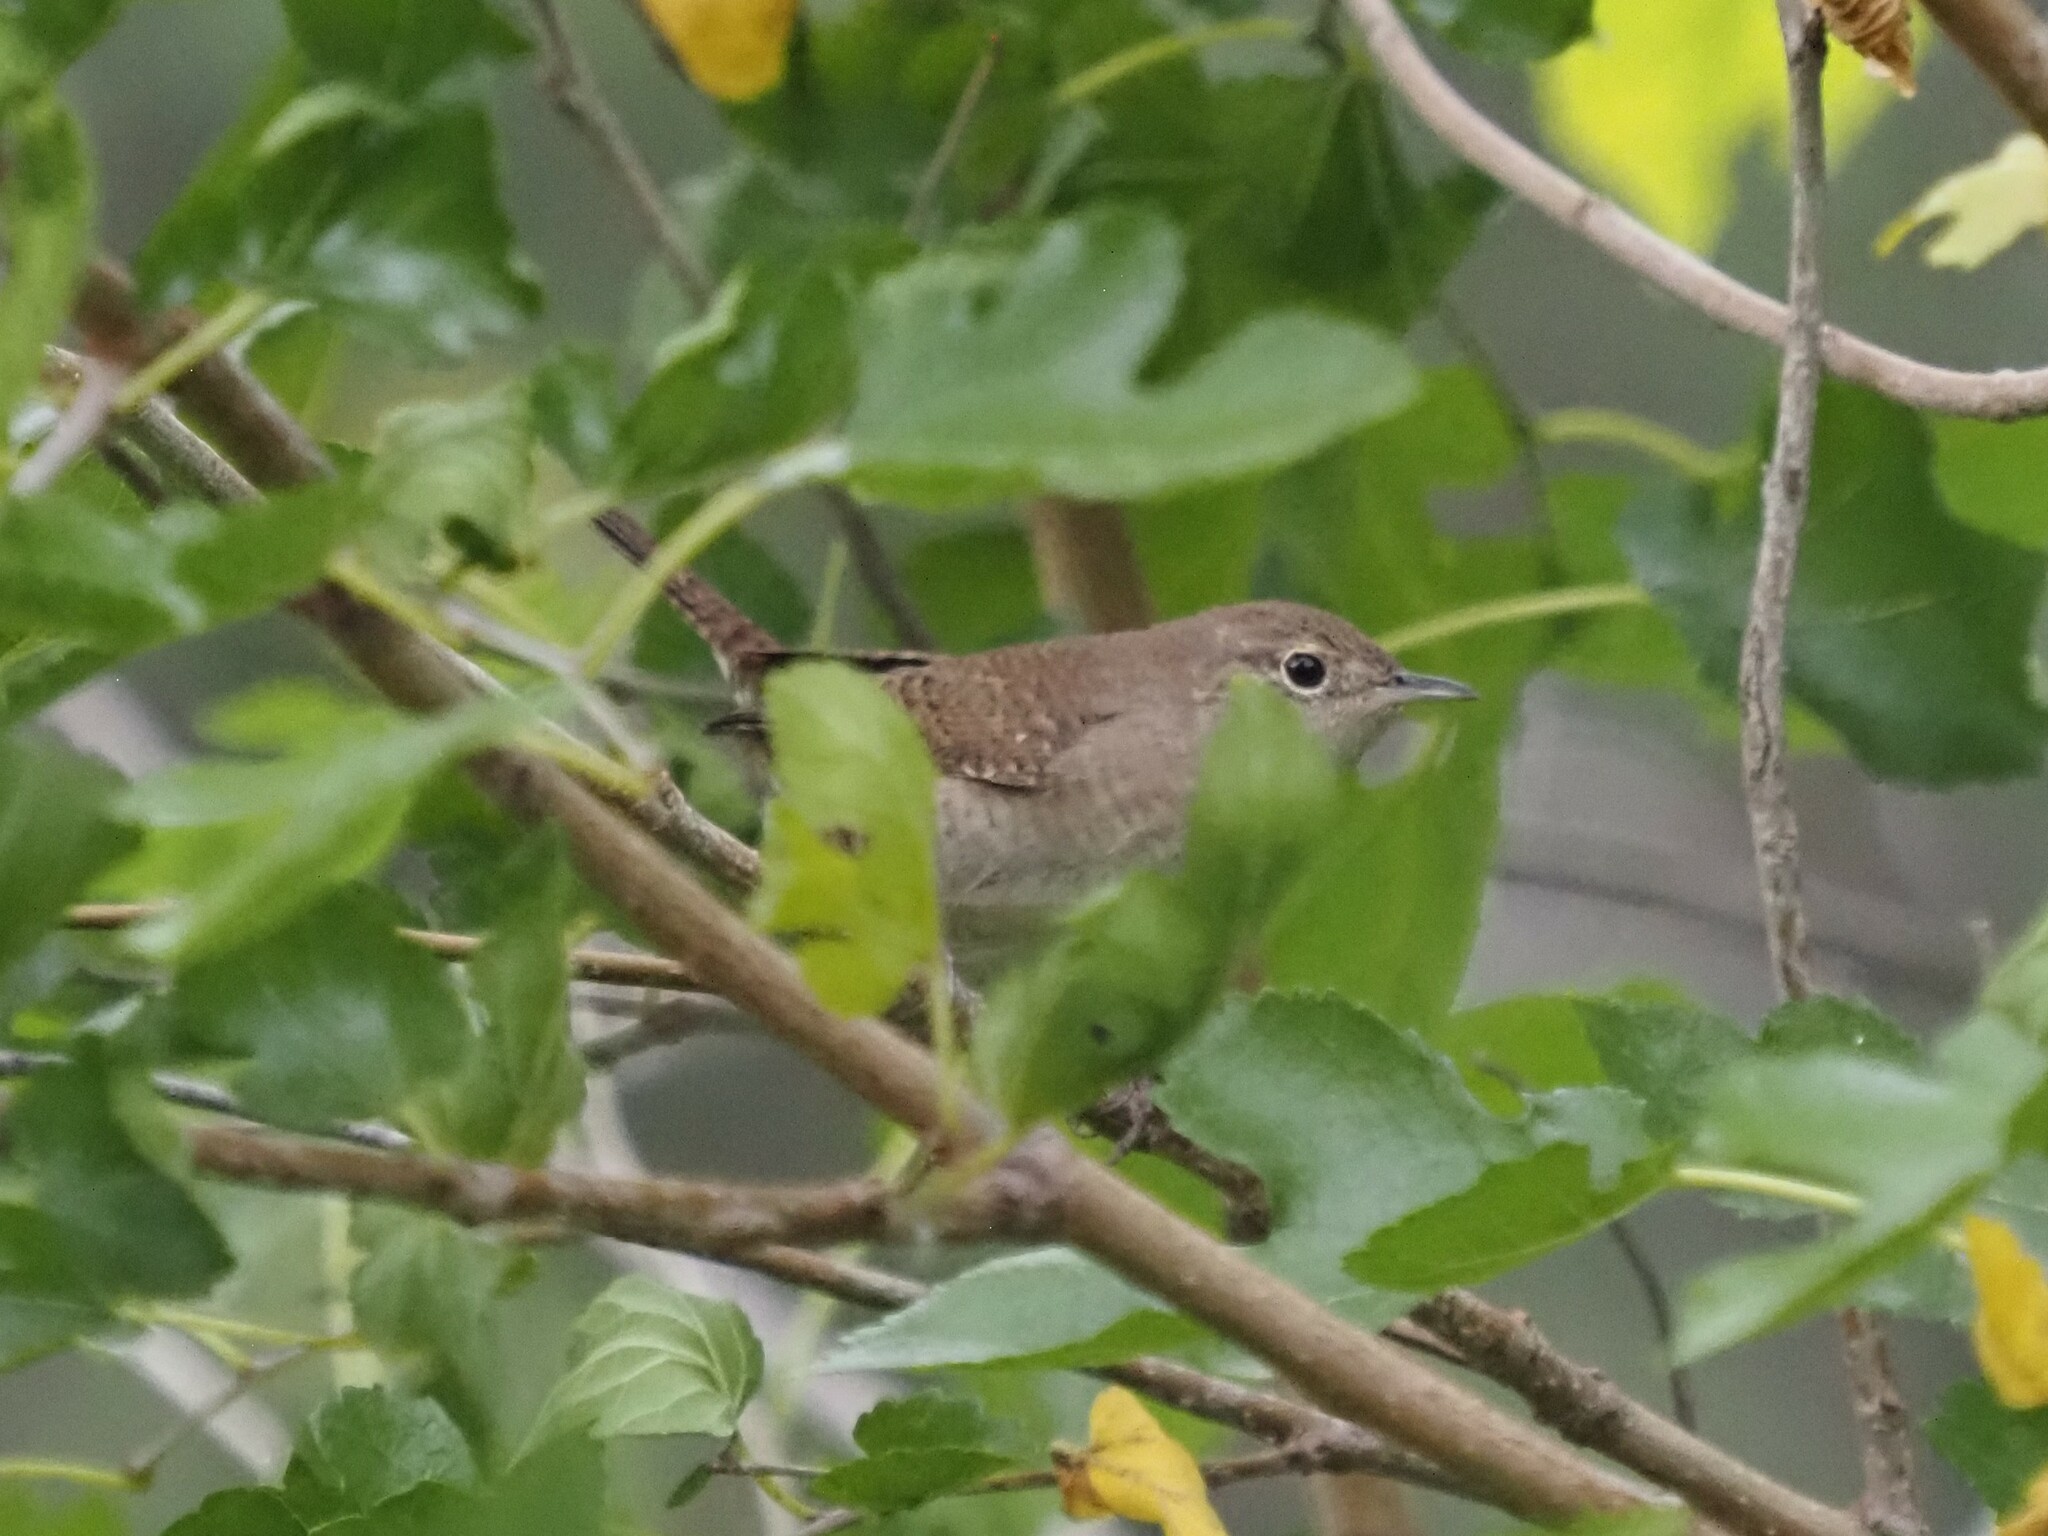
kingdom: Animalia
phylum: Chordata
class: Aves
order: Passeriformes
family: Troglodytidae
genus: Troglodytes
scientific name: Troglodytes aedon
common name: House wren
